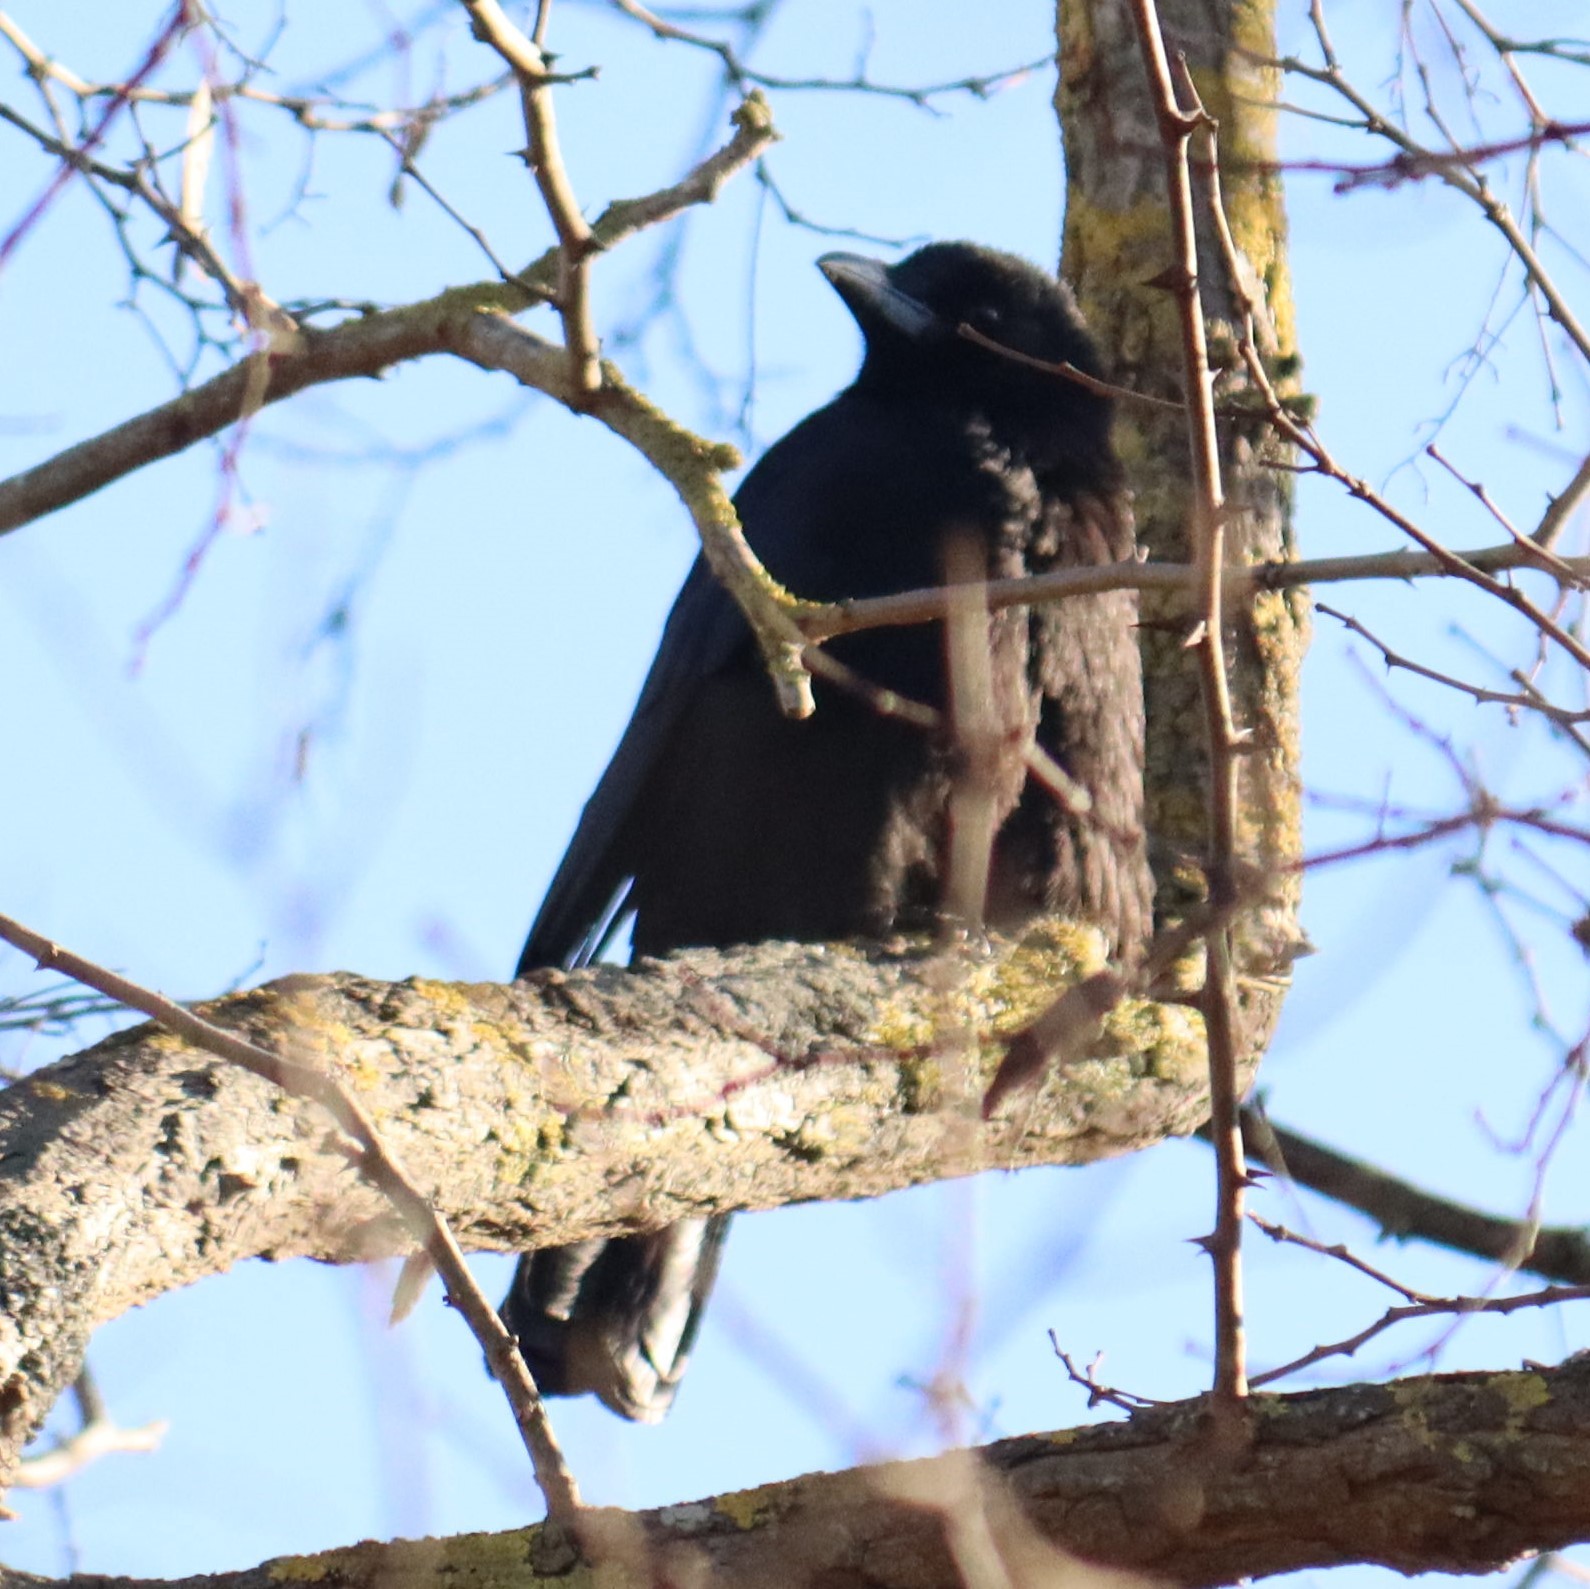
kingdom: Animalia
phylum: Chordata
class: Aves
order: Passeriformes
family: Corvidae
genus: Corvus
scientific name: Corvus corone
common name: Carrion crow
